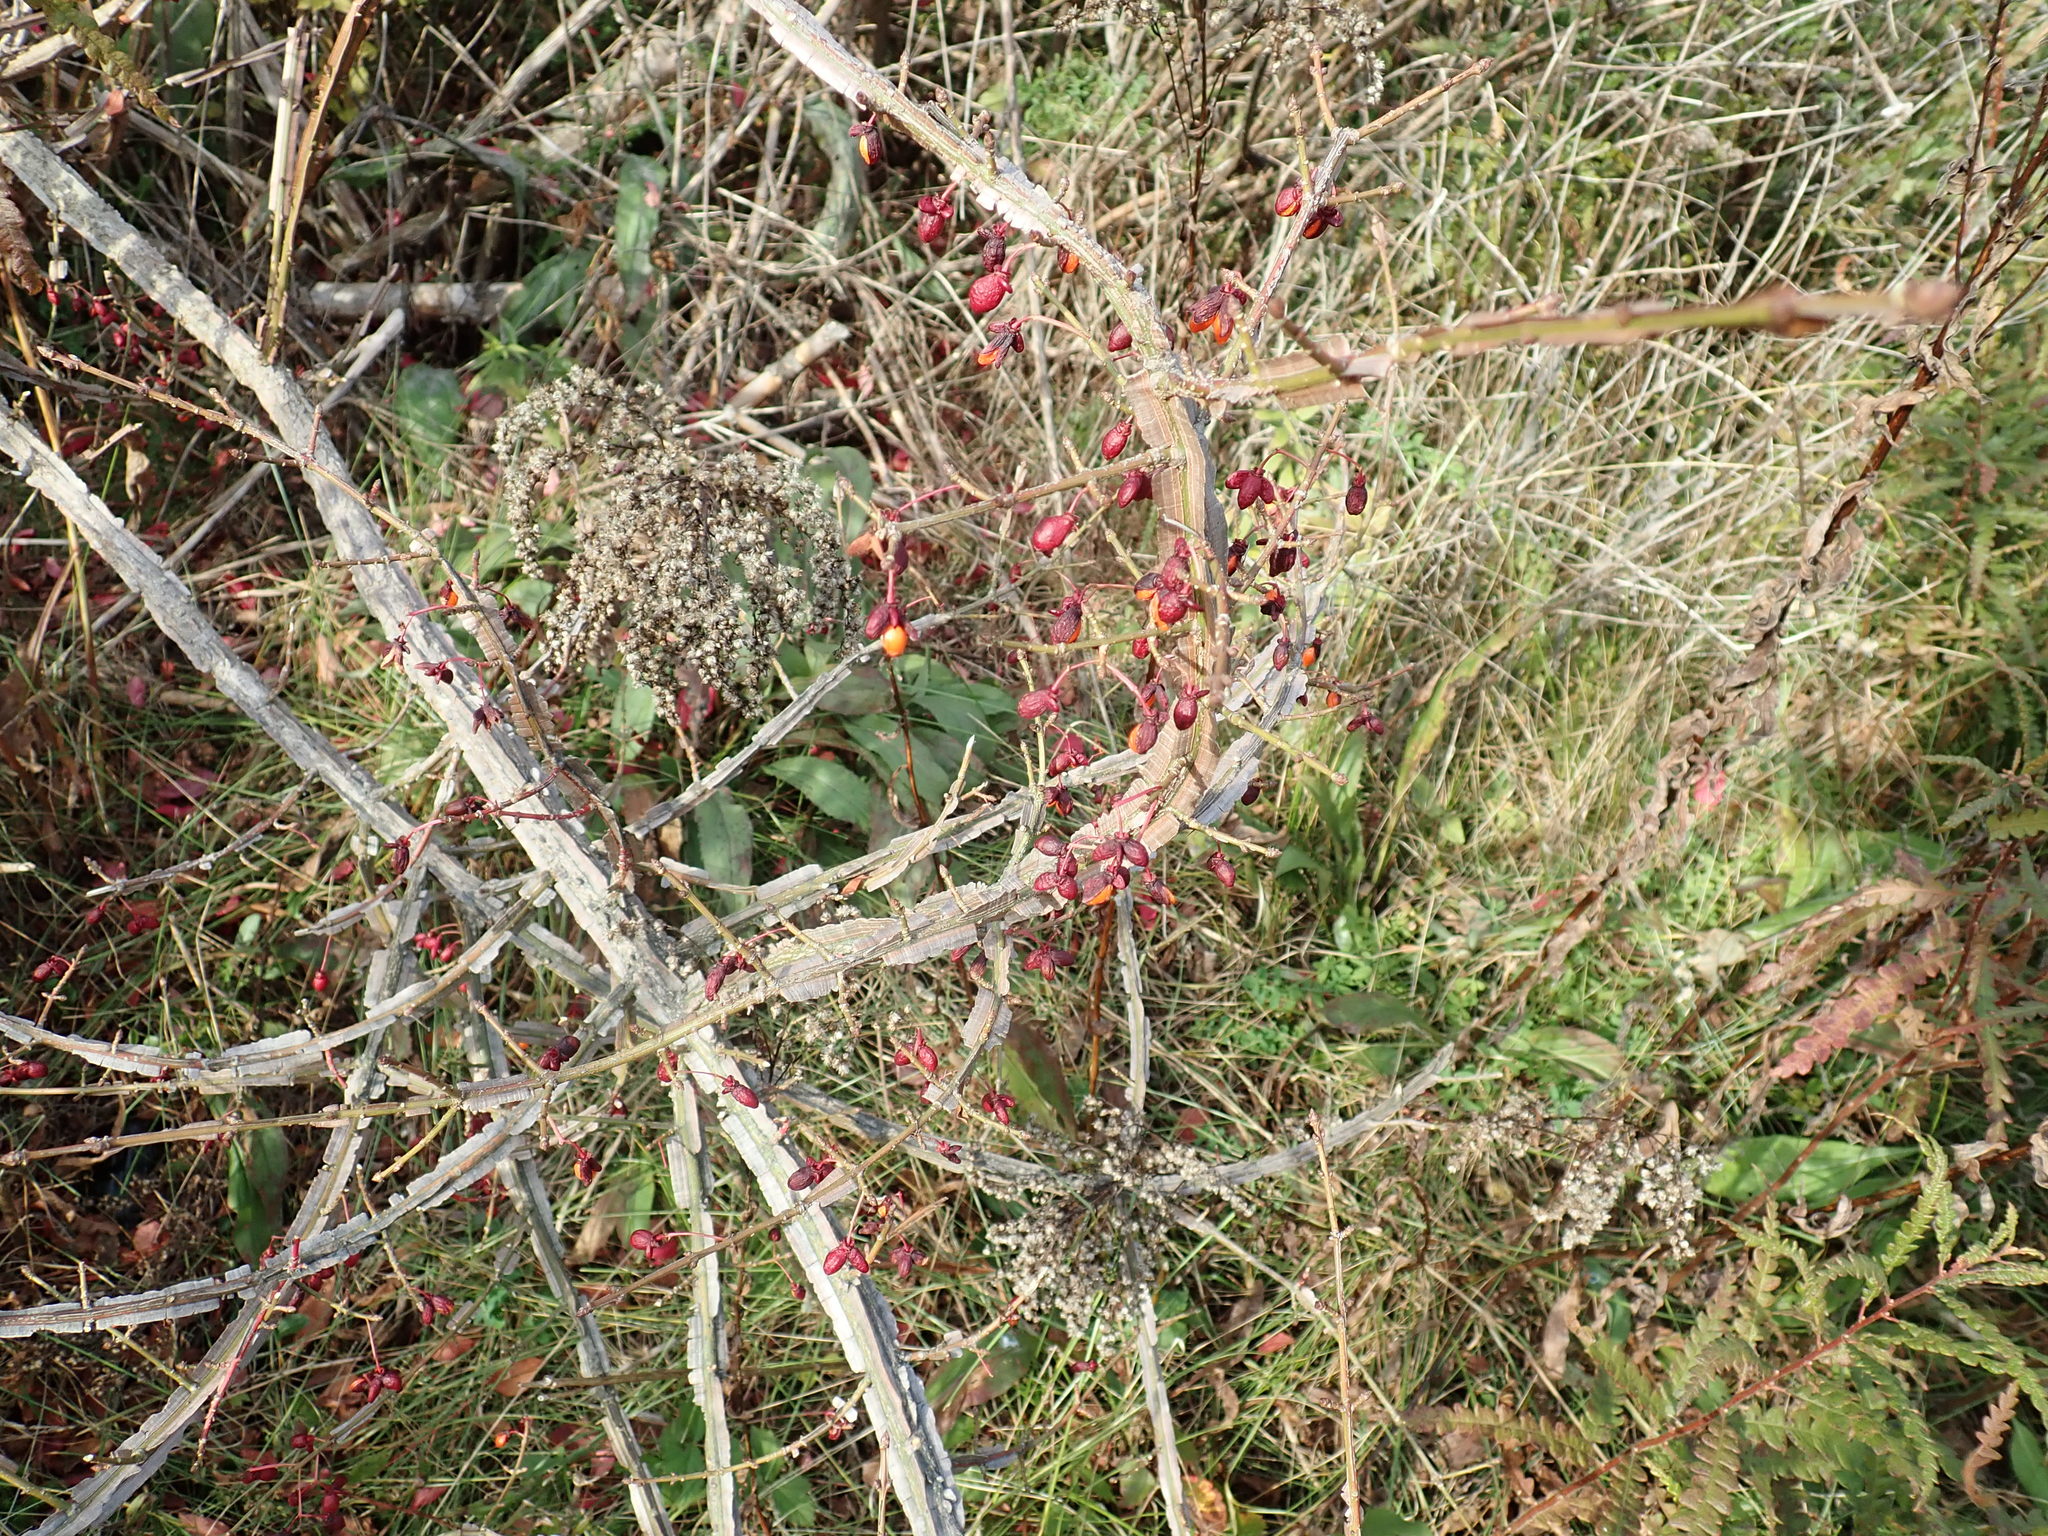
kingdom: Plantae
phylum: Tracheophyta
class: Magnoliopsida
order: Celastrales
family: Celastraceae
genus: Euonymus
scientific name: Euonymus alatus
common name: Winged euonymus
